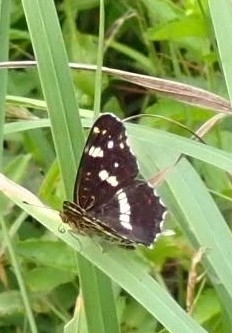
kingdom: Animalia
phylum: Arthropoda
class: Insecta
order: Lepidoptera
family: Nymphalidae
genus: Araschnia
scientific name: Araschnia levana
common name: Map butterfly
